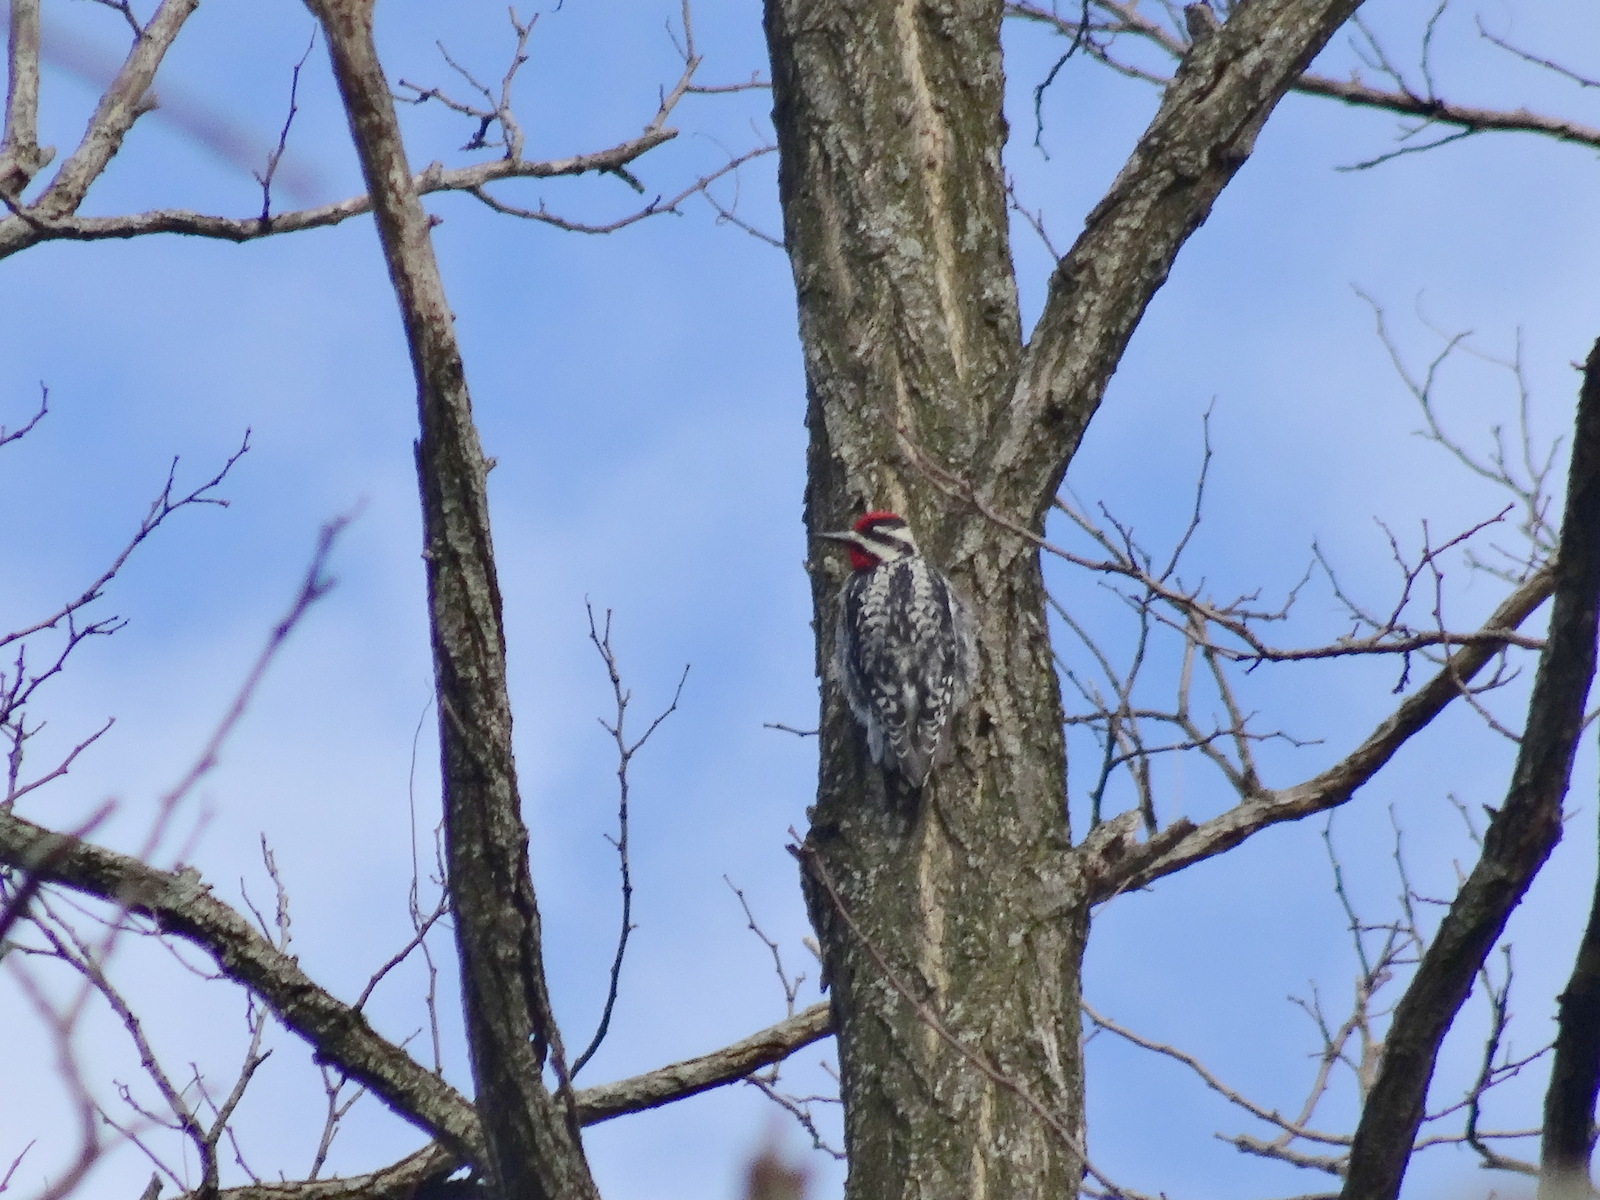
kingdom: Animalia
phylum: Chordata
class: Aves
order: Piciformes
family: Picidae
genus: Sphyrapicus
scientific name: Sphyrapicus varius
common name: Yellow-bellied sapsucker
